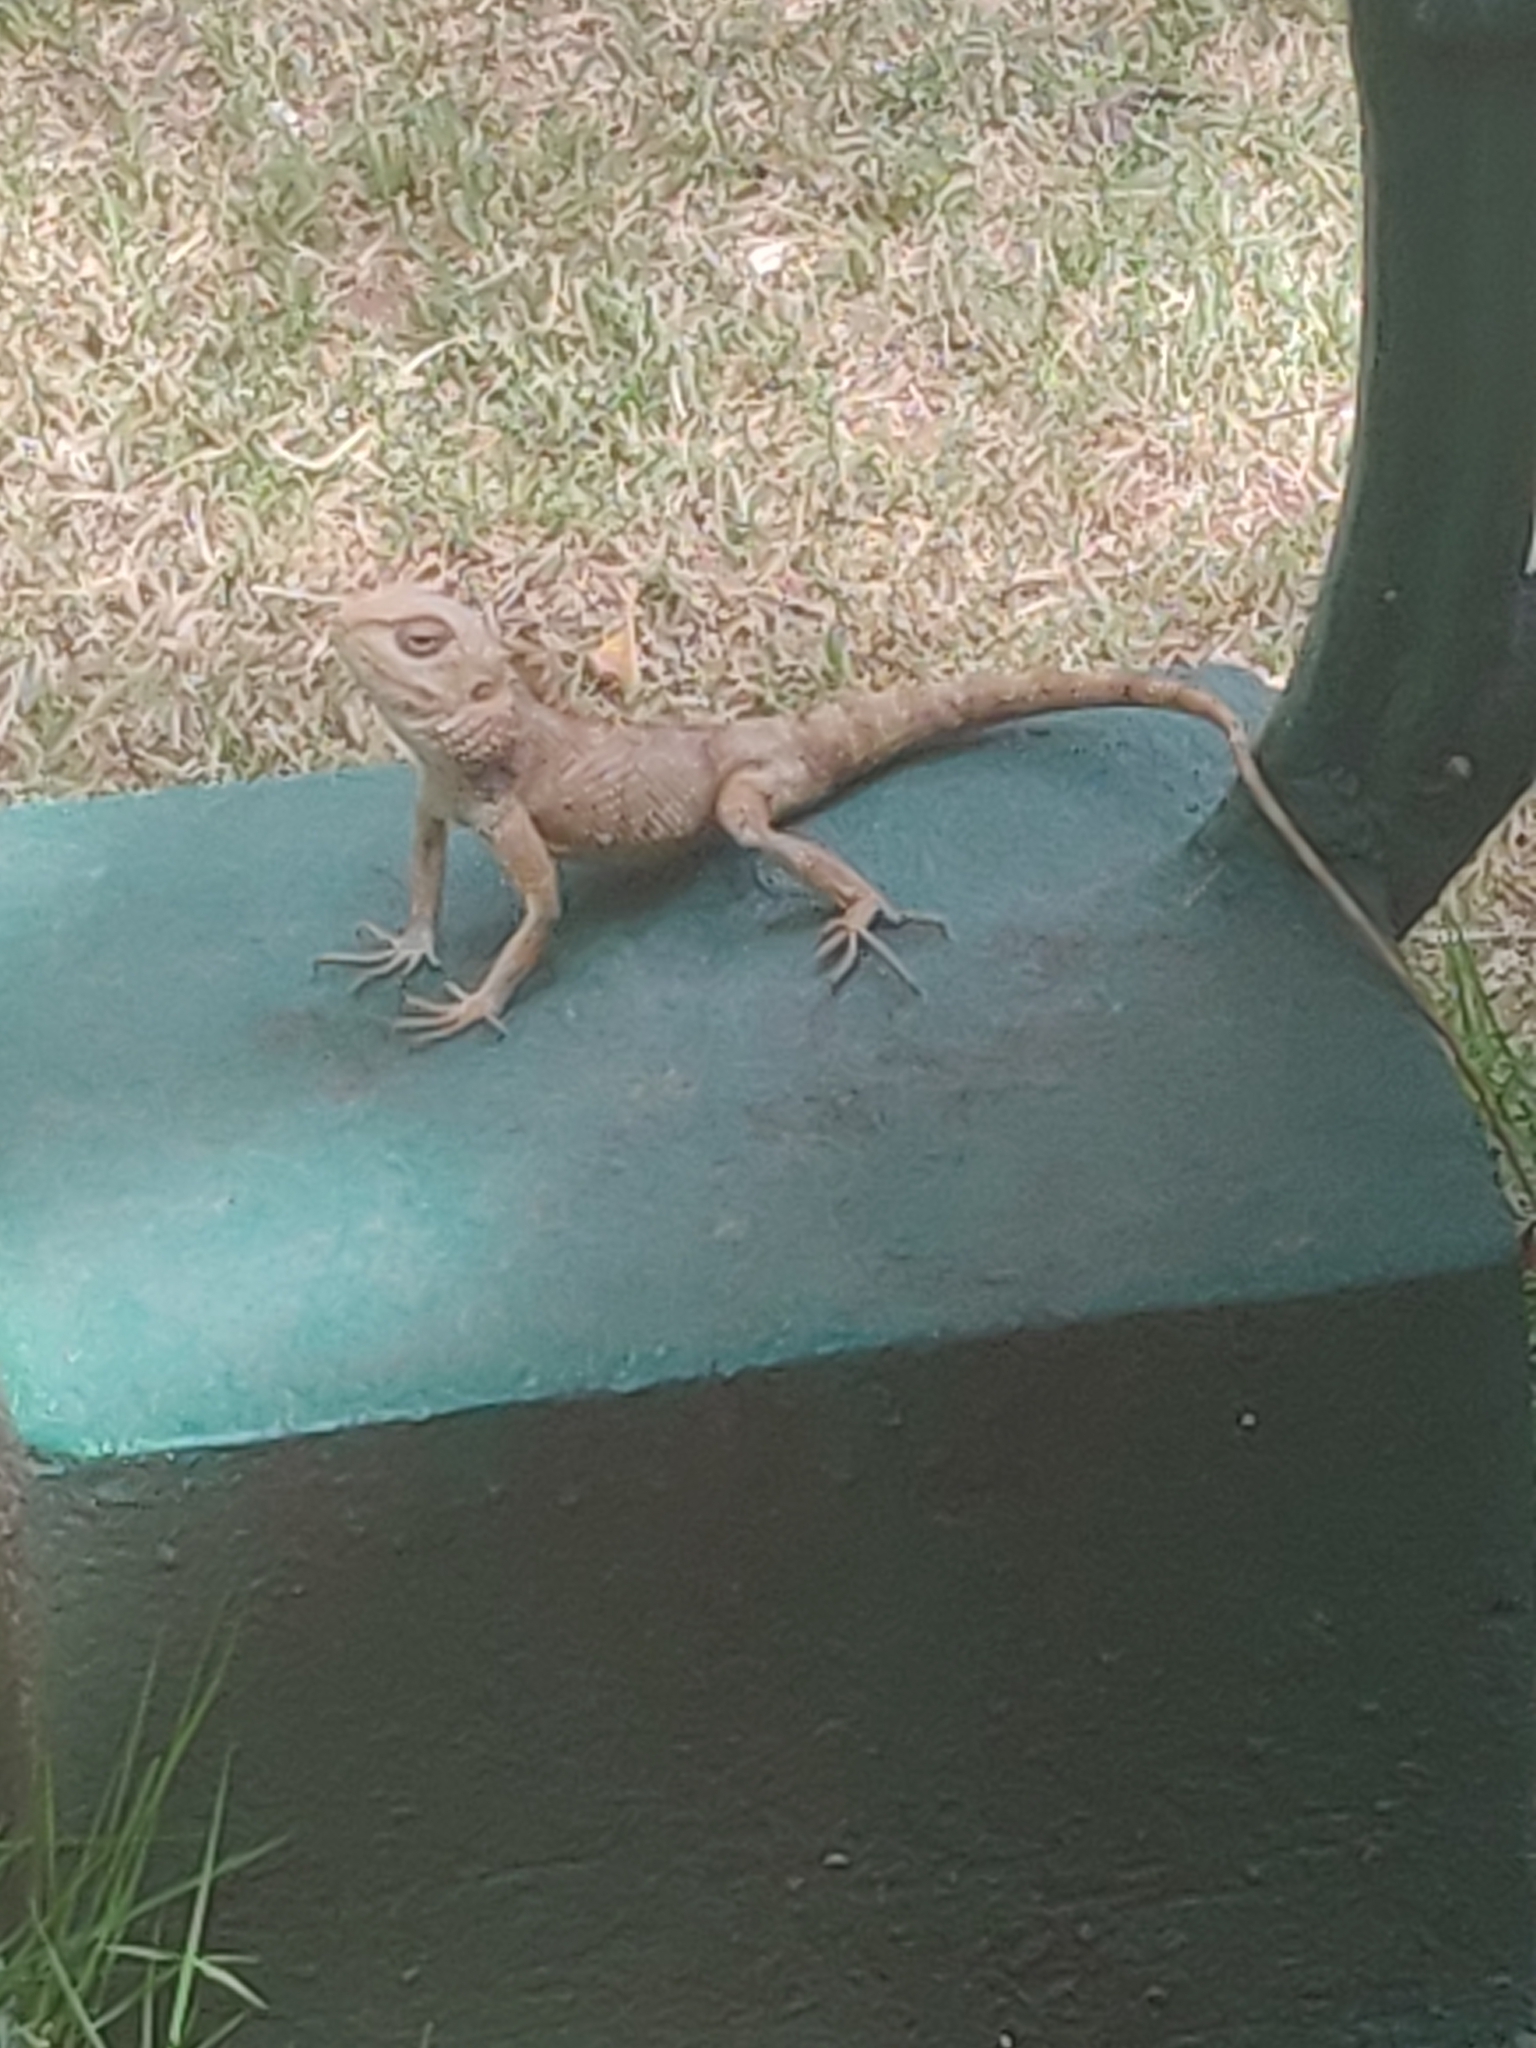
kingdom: Animalia
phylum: Chordata
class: Squamata
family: Agamidae
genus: Calotes
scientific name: Calotes versicolor
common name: Oriental garden lizard
